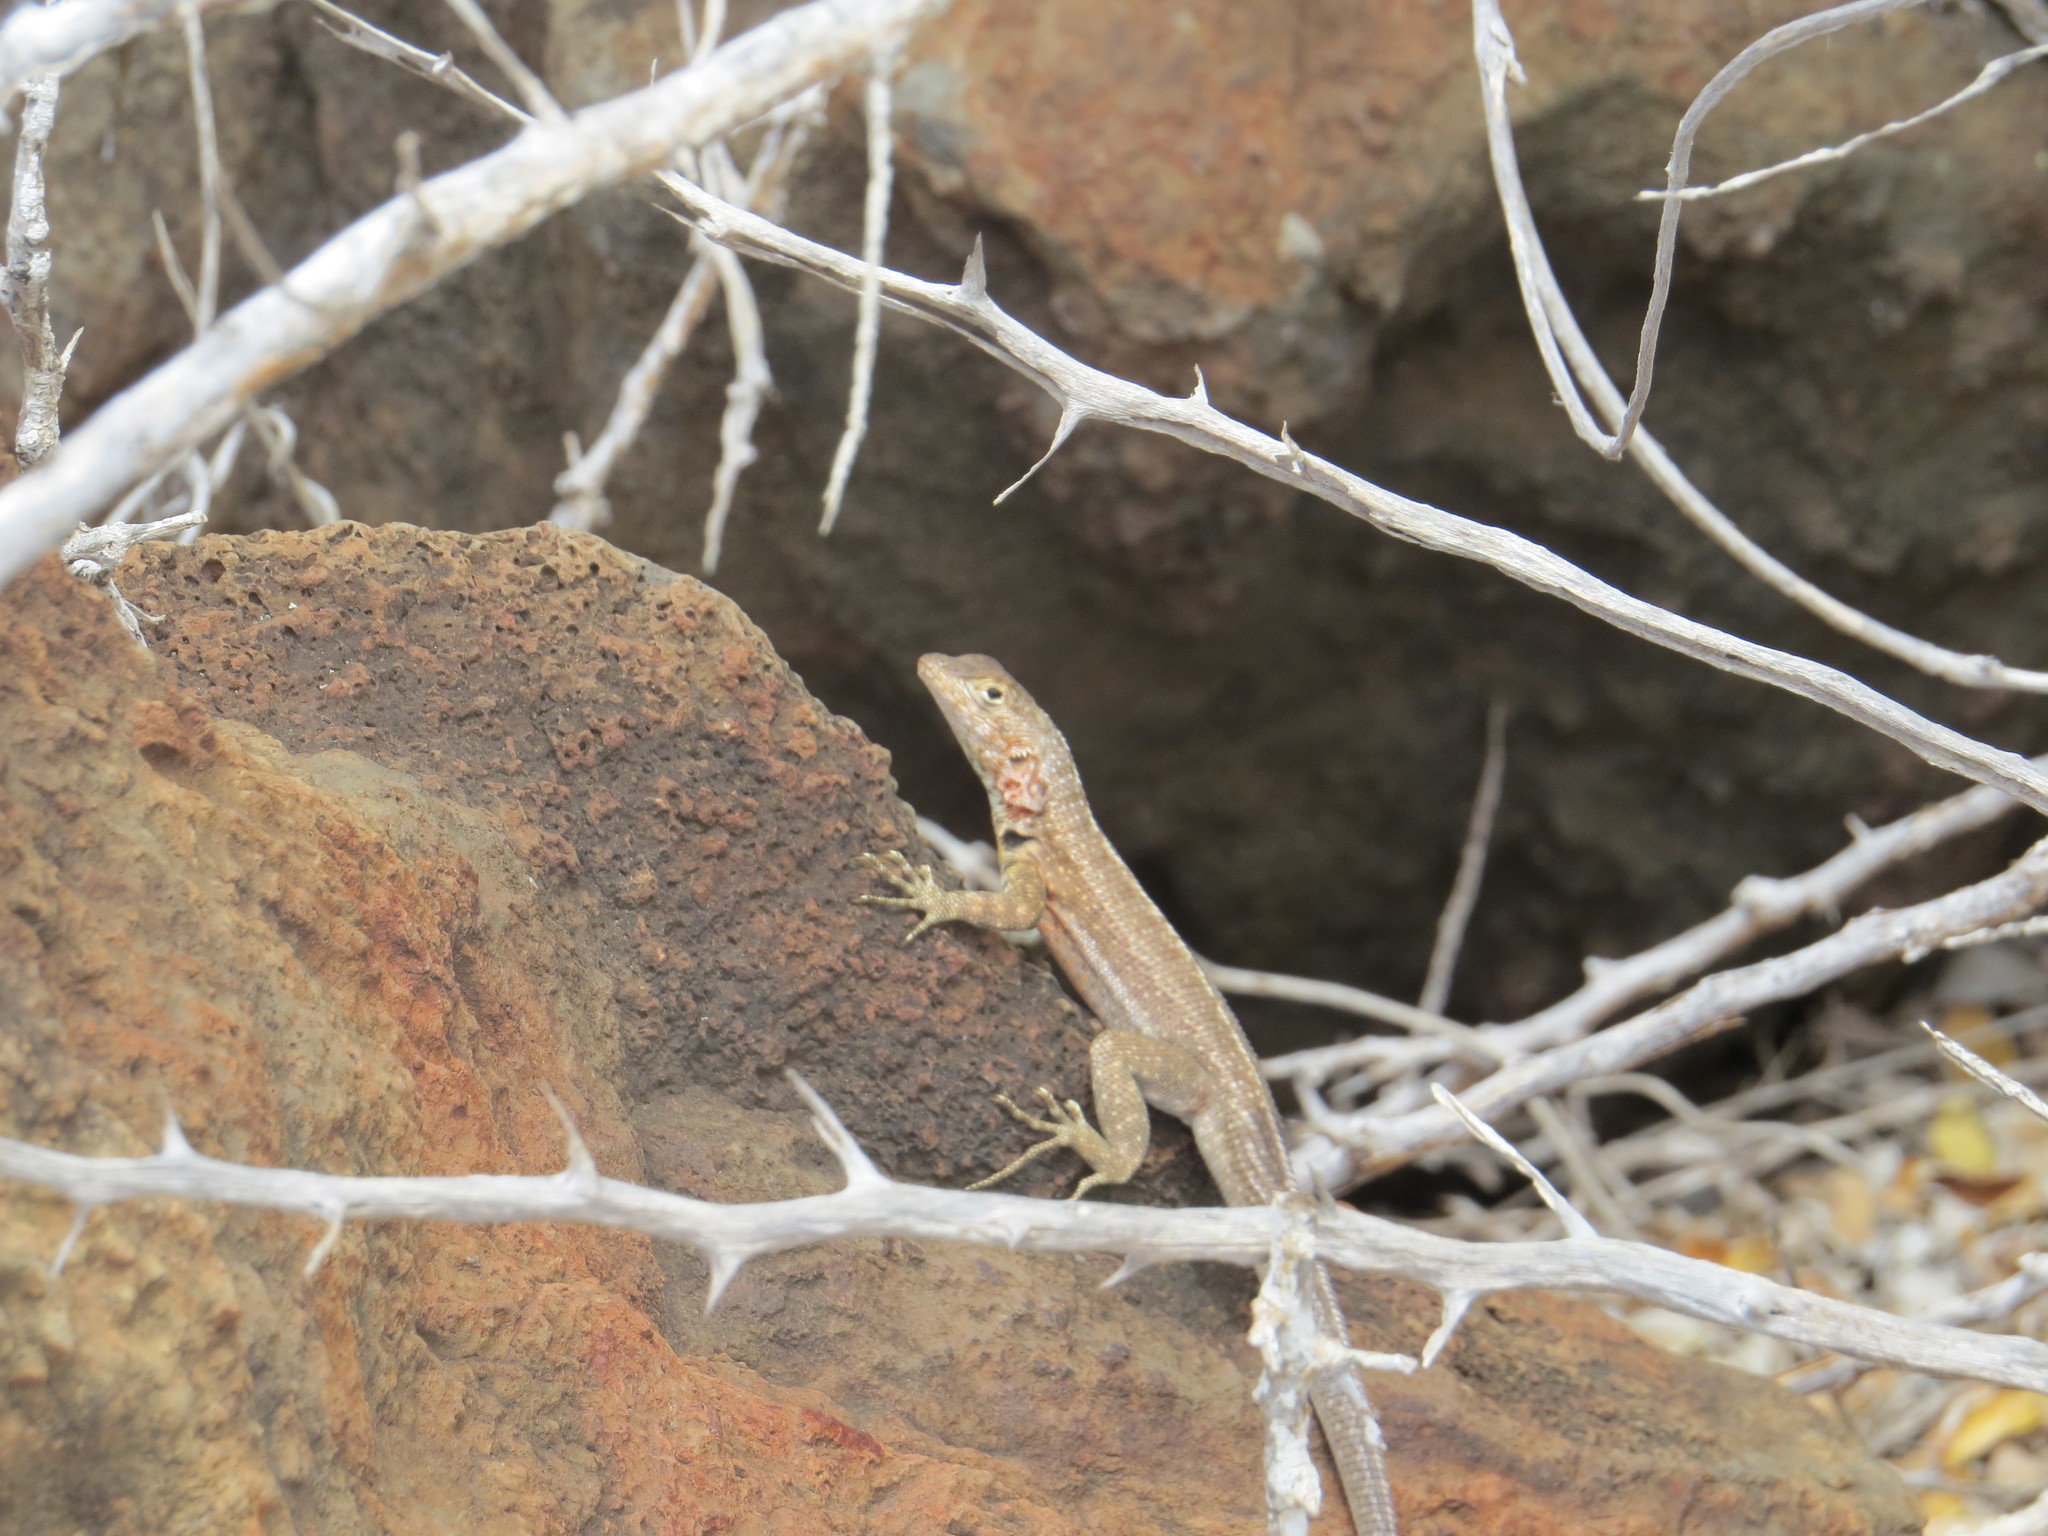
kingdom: Animalia
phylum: Chordata
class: Squamata
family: Tropiduridae
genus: Microlophus
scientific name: Microlophus indefatigabilis
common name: Galapagos lava lizard
